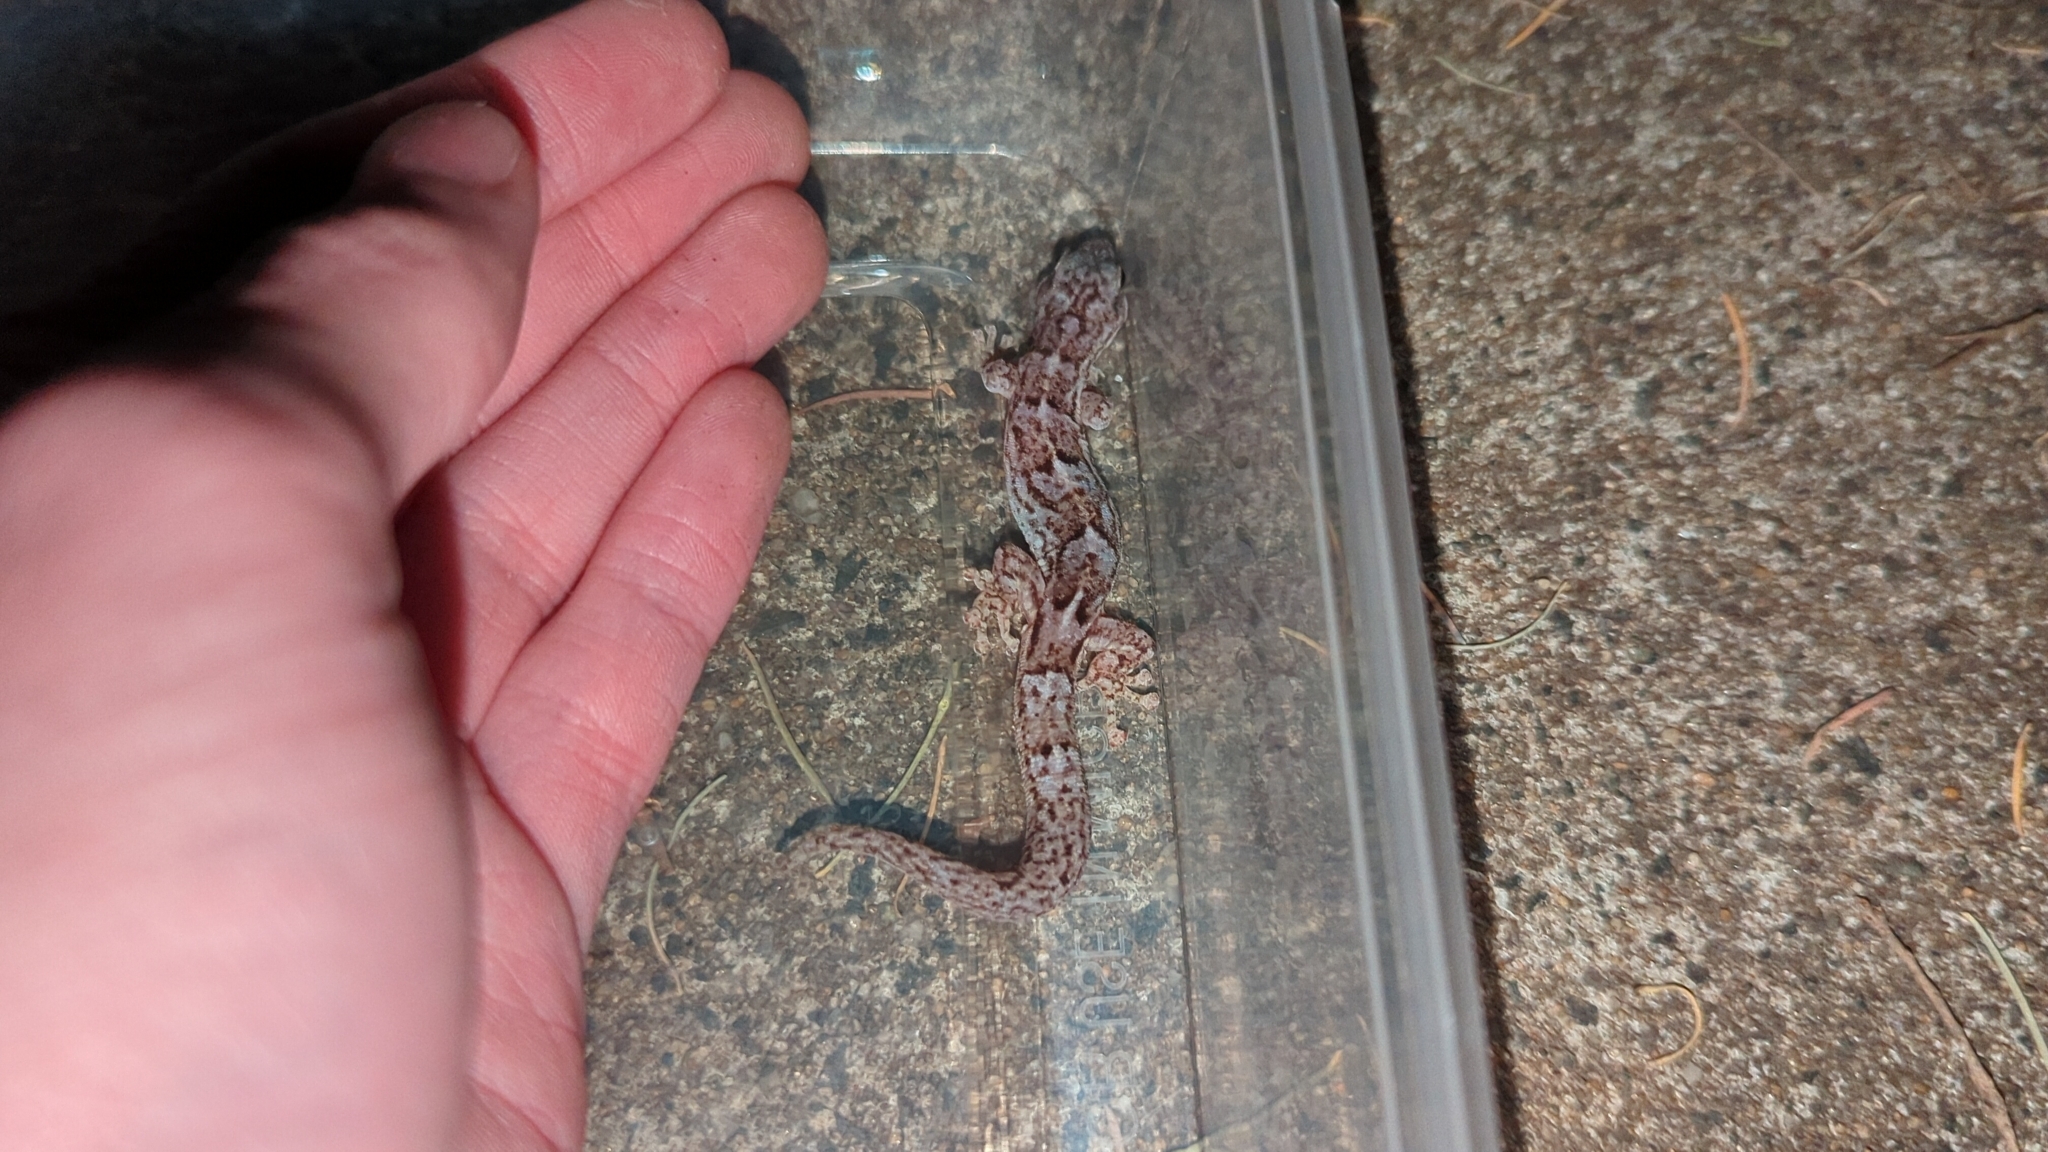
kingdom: Animalia
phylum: Chordata
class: Squamata
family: Gekkonidae
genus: Christinus
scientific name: Christinus marmoratus
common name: Marbled gecko
